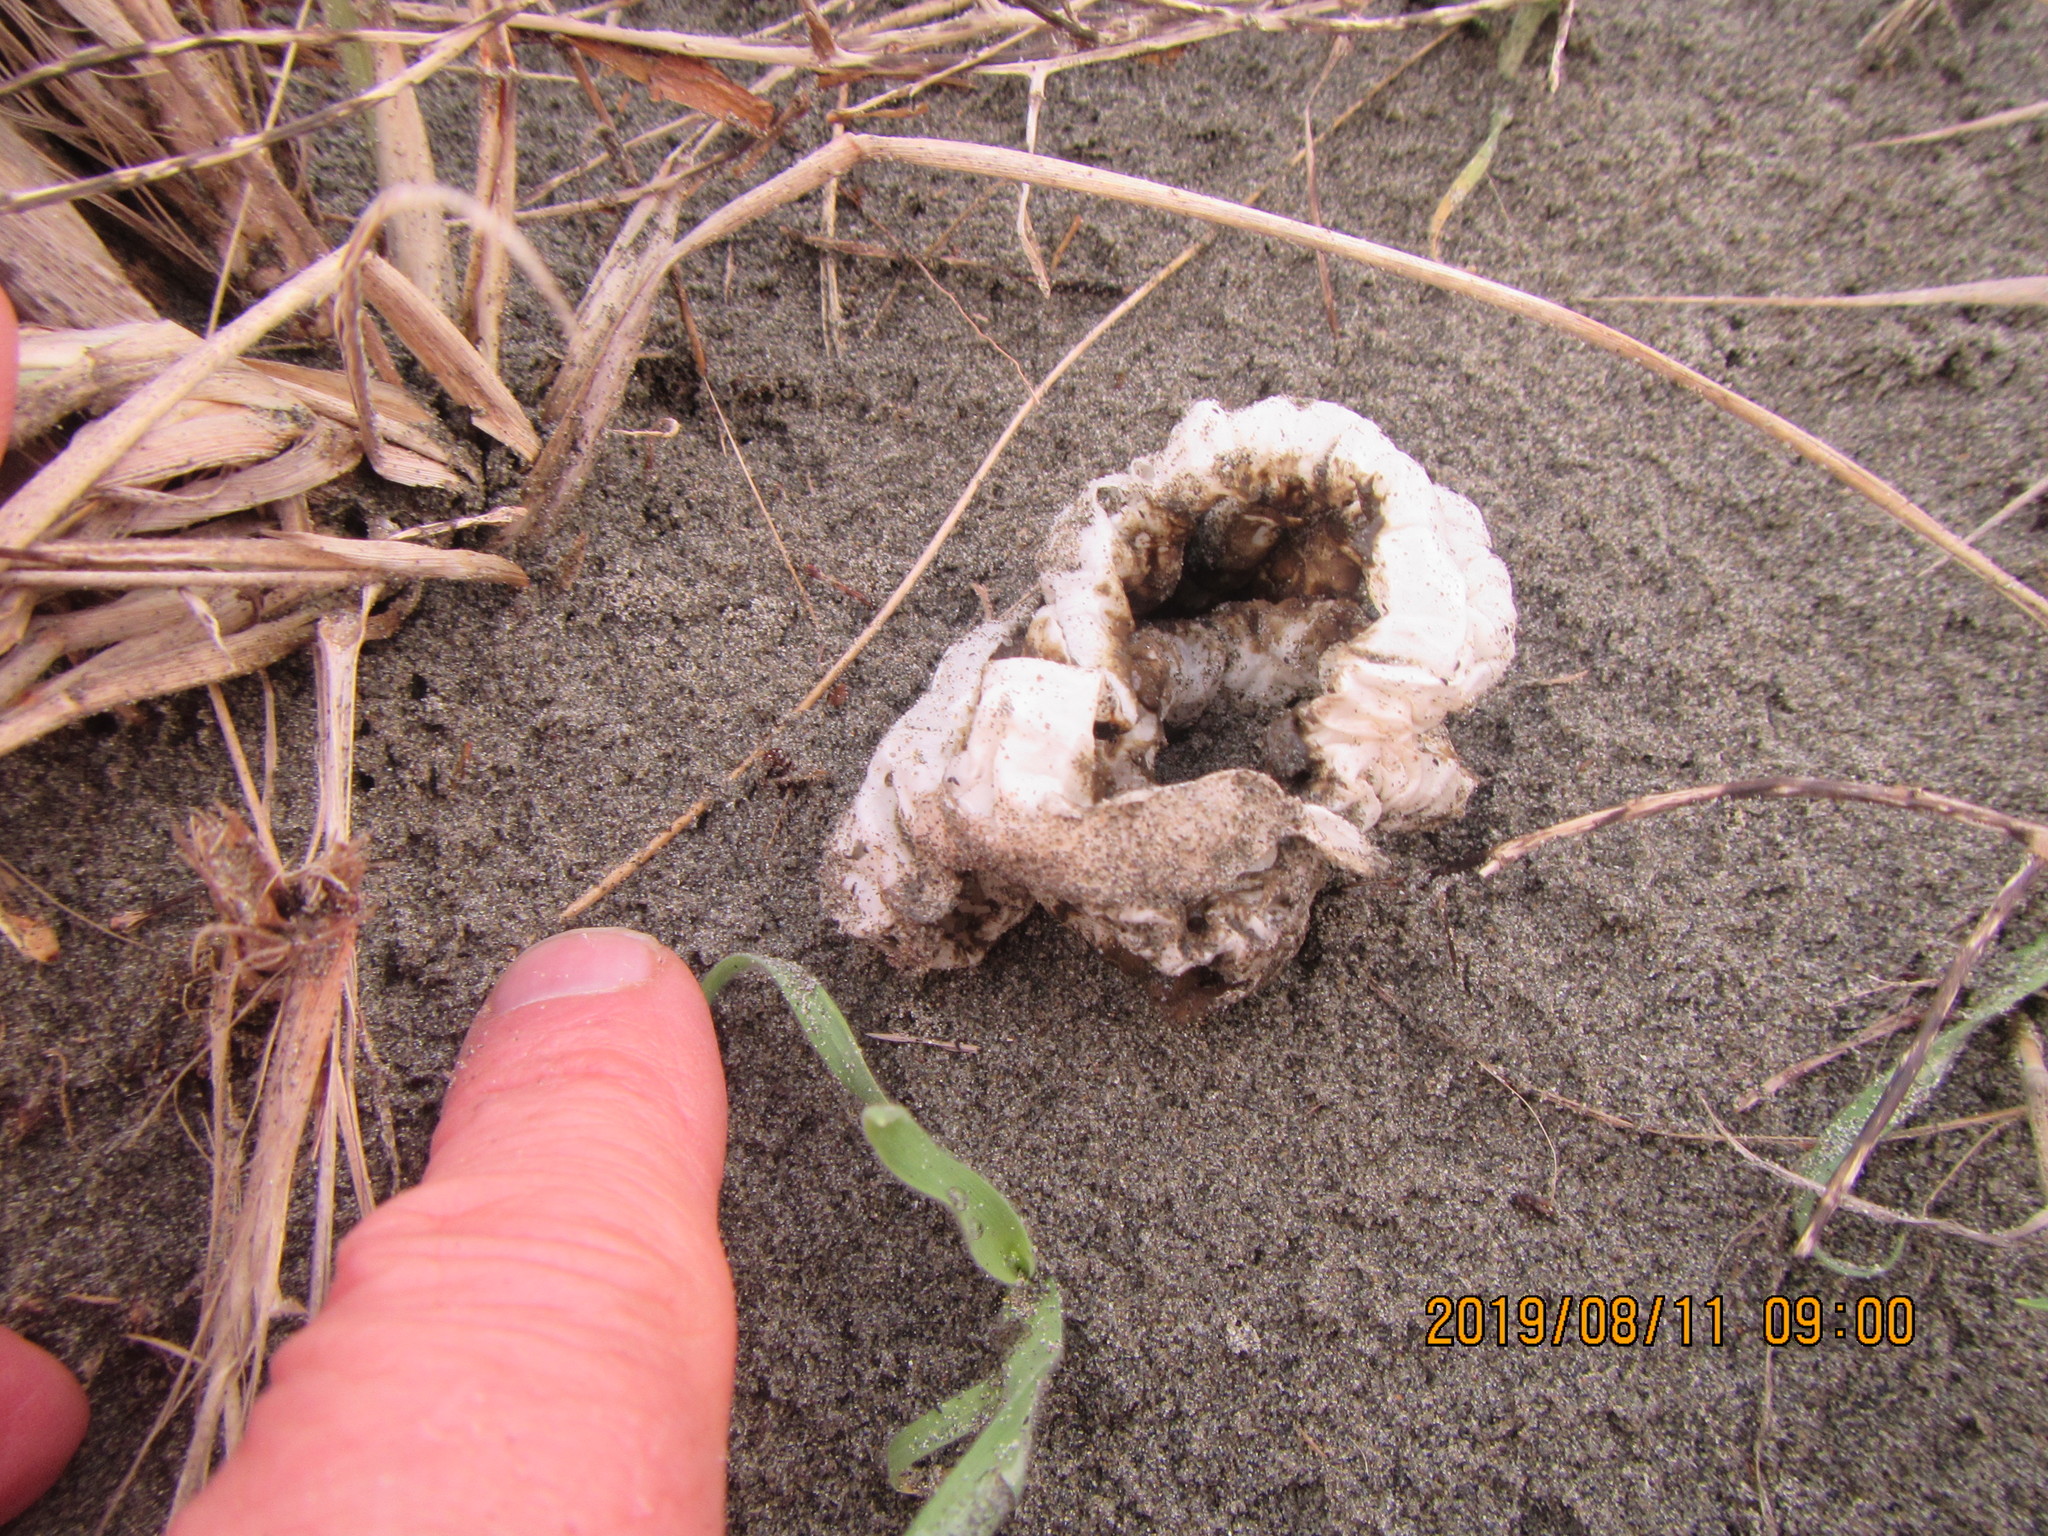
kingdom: Fungi
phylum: Basidiomycota
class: Agaricomycetes
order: Phallales
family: Phallaceae
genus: Ileodictyon
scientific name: Ileodictyon cibarium
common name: Basket fungus
